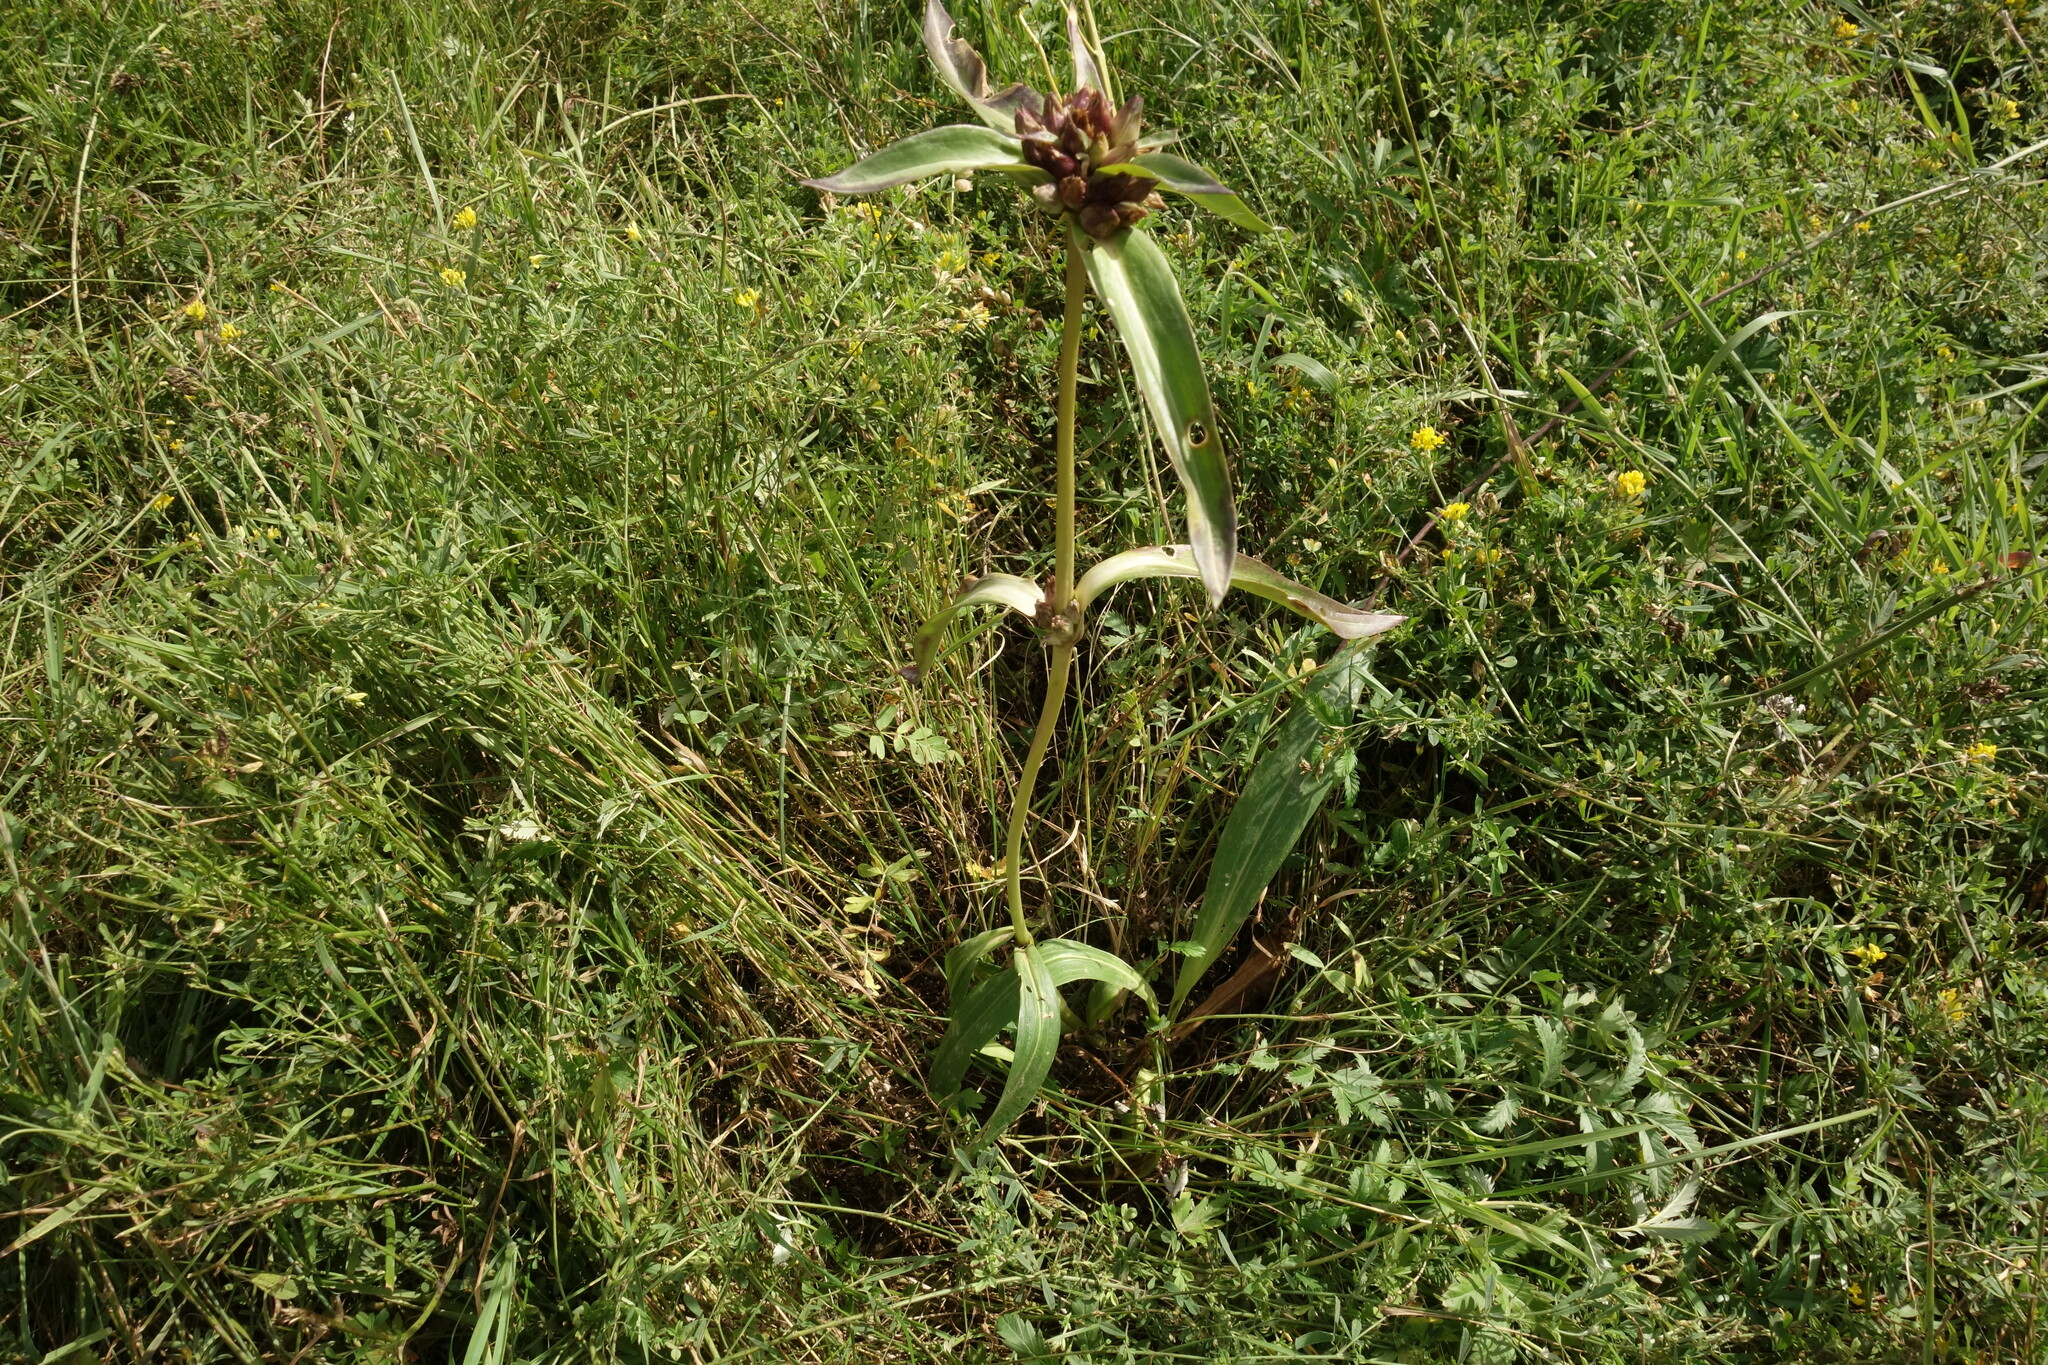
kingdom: Plantae
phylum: Tracheophyta
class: Magnoliopsida
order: Gentianales
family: Gentianaceae
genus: Gentiana
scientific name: Gentiana macrophylla
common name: Large-leaf gentian
